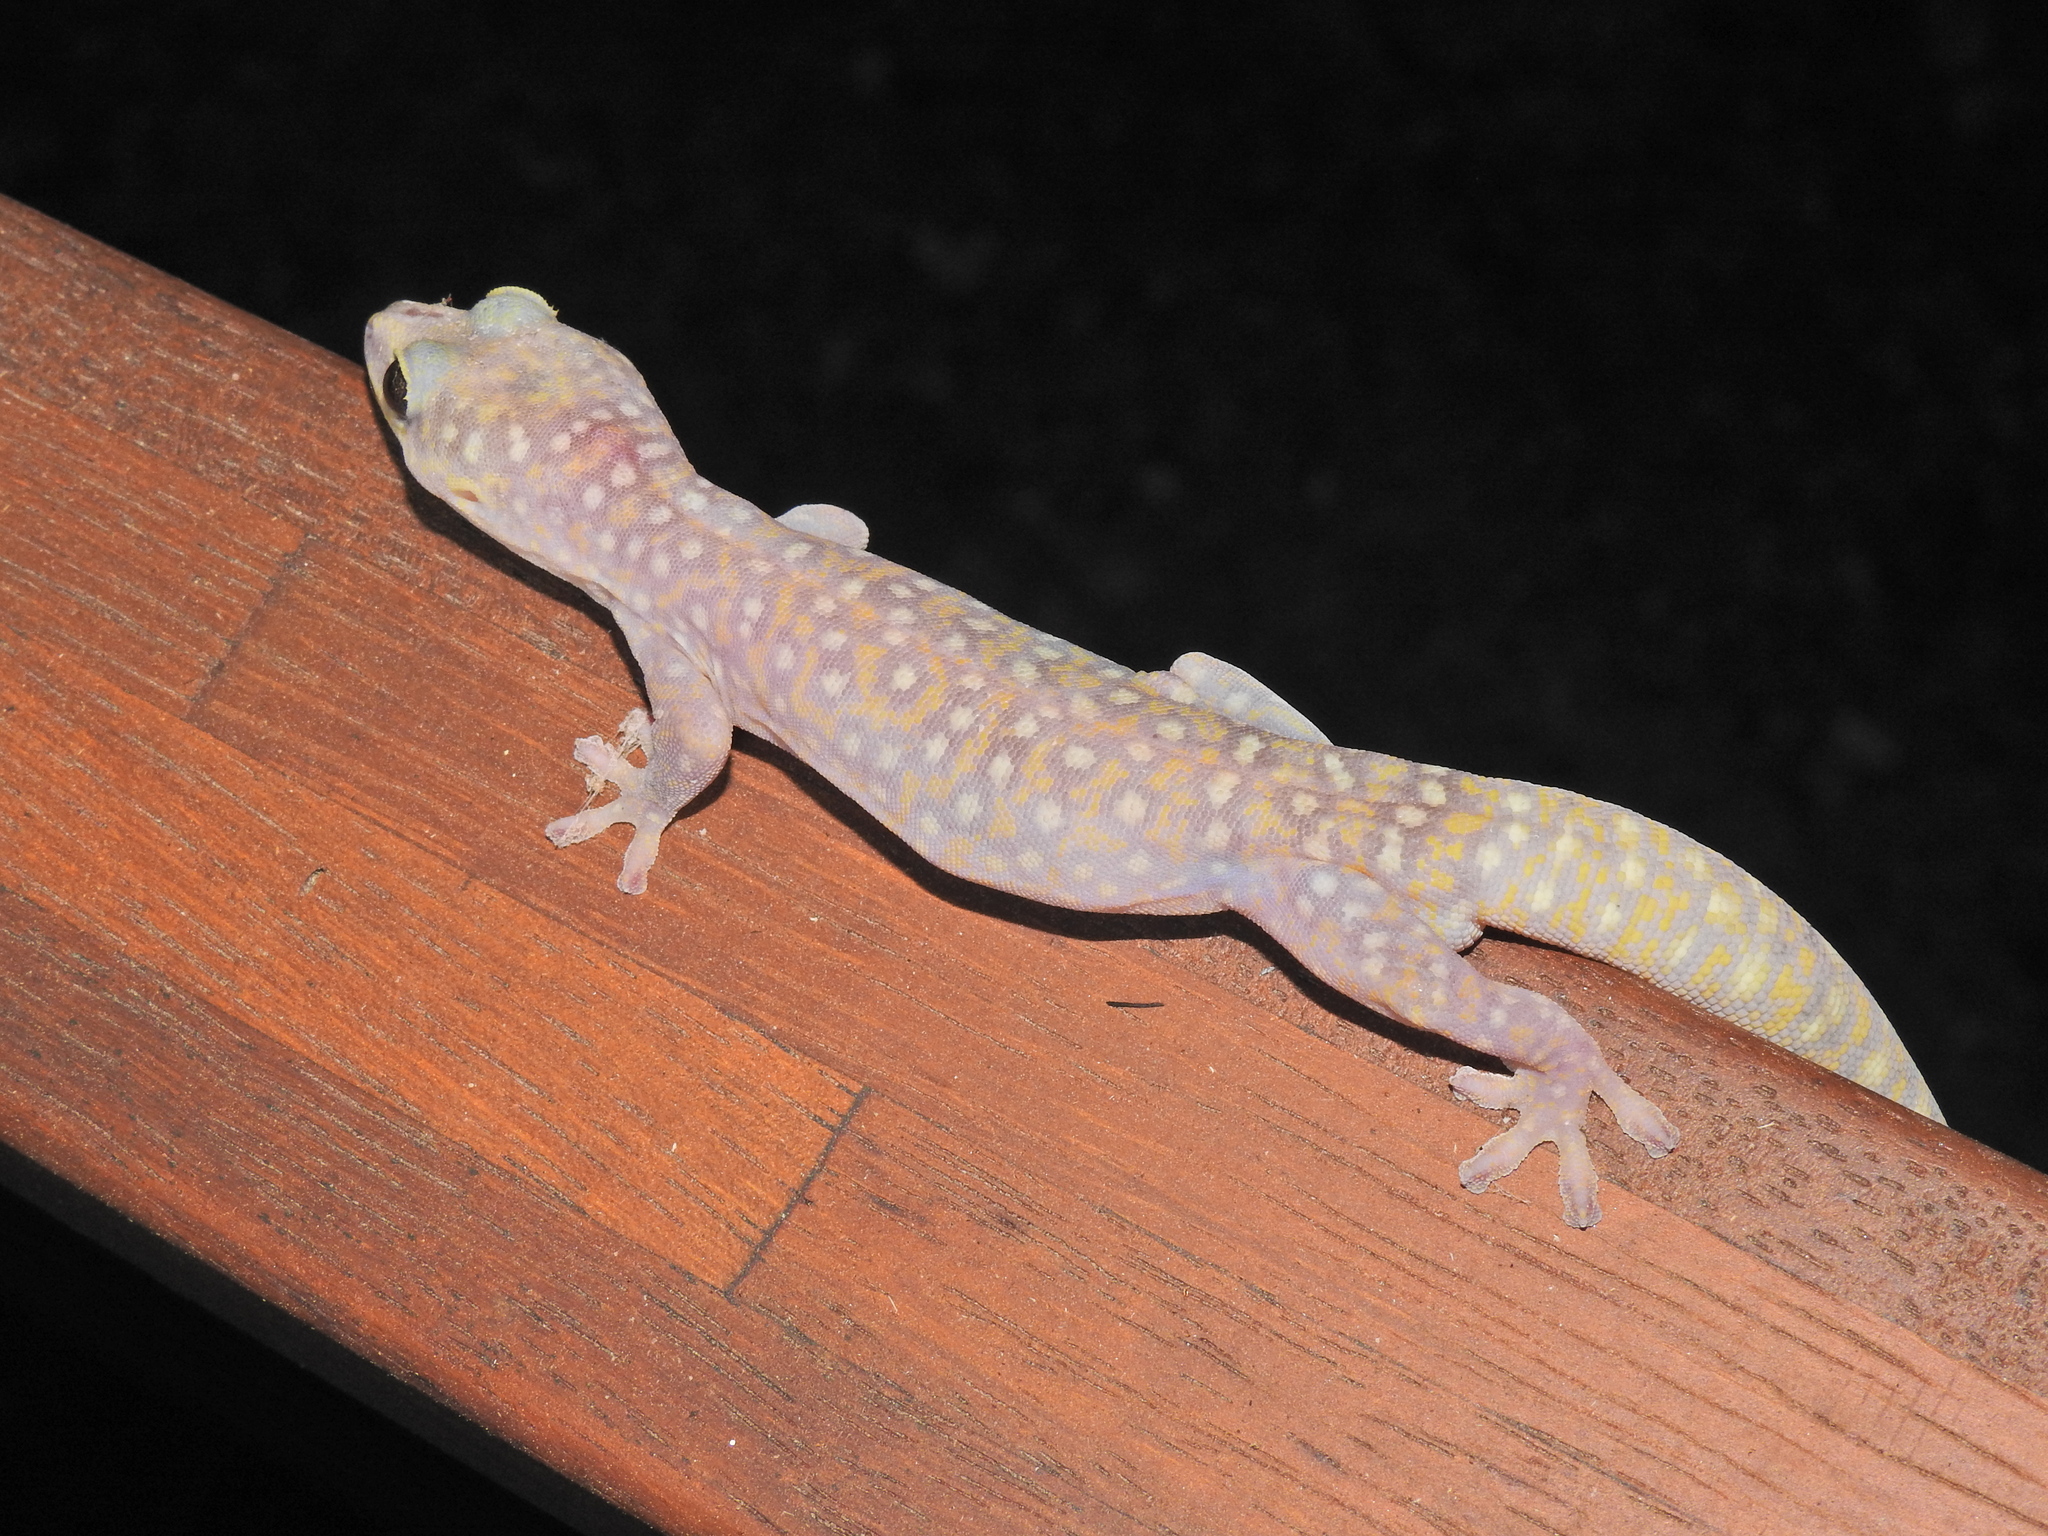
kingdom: Animalia
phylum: Chordata
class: Squamata
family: Diplodactylidae
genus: Oedura
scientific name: Oedura tryoni
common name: Southern spotted velvet gecko
